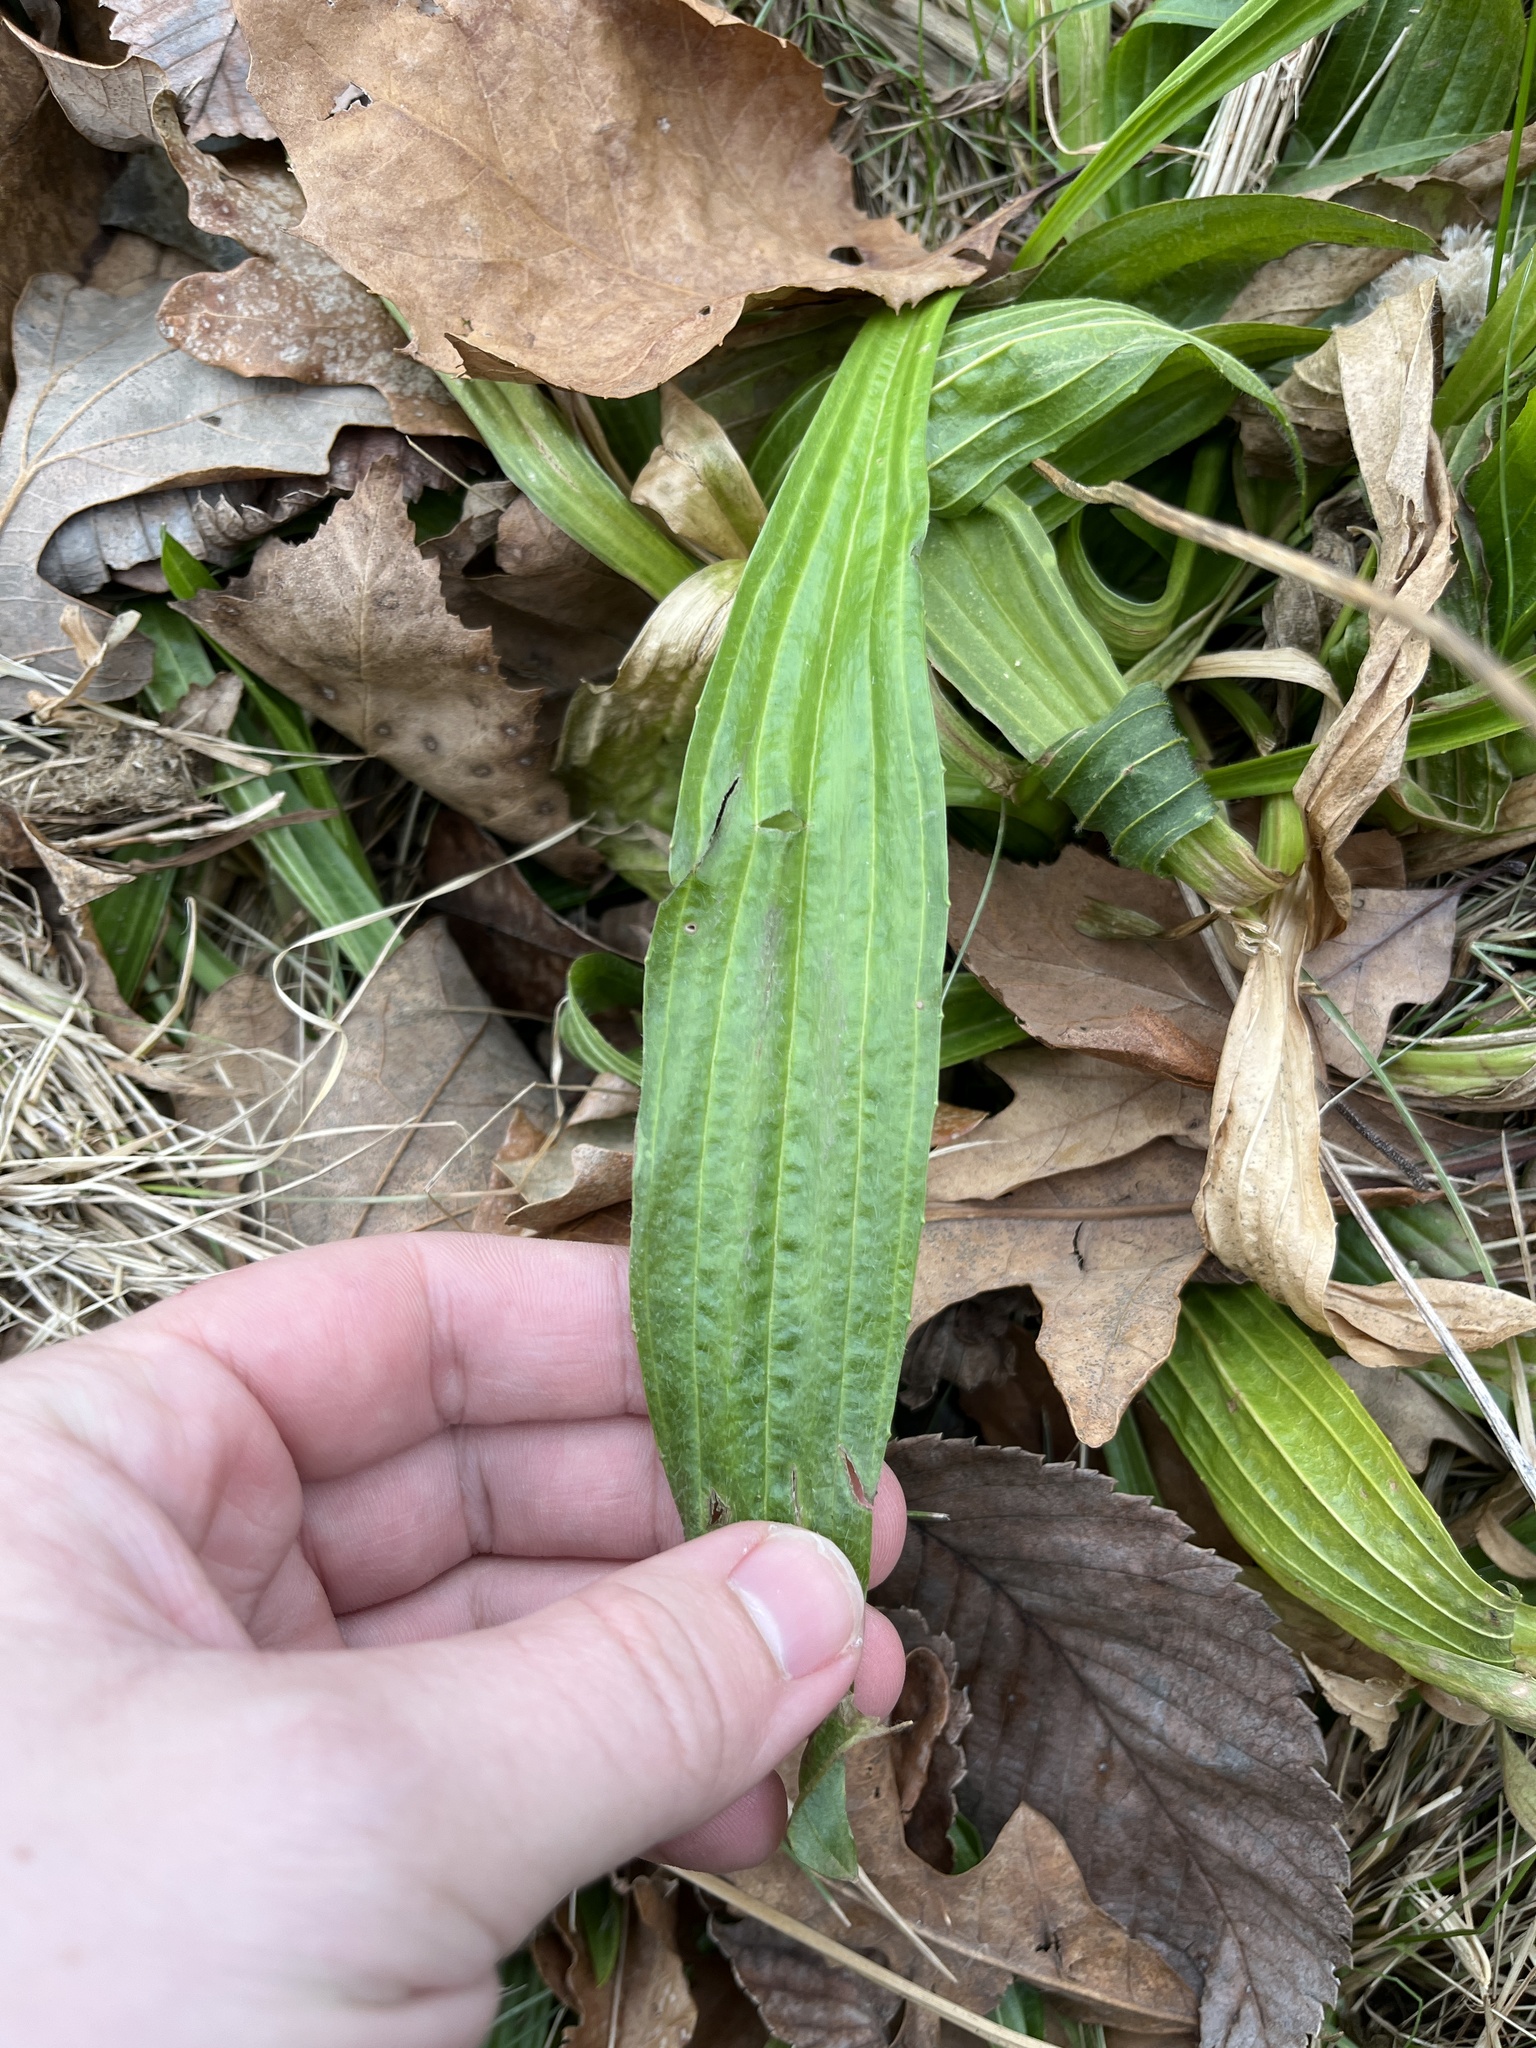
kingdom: Plantae
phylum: Tracheophyta
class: Magnoliopsida
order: Lamiales
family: Plantaginaceae
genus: Plantago
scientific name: Plantago lanceolata
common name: Ribwort plantain
